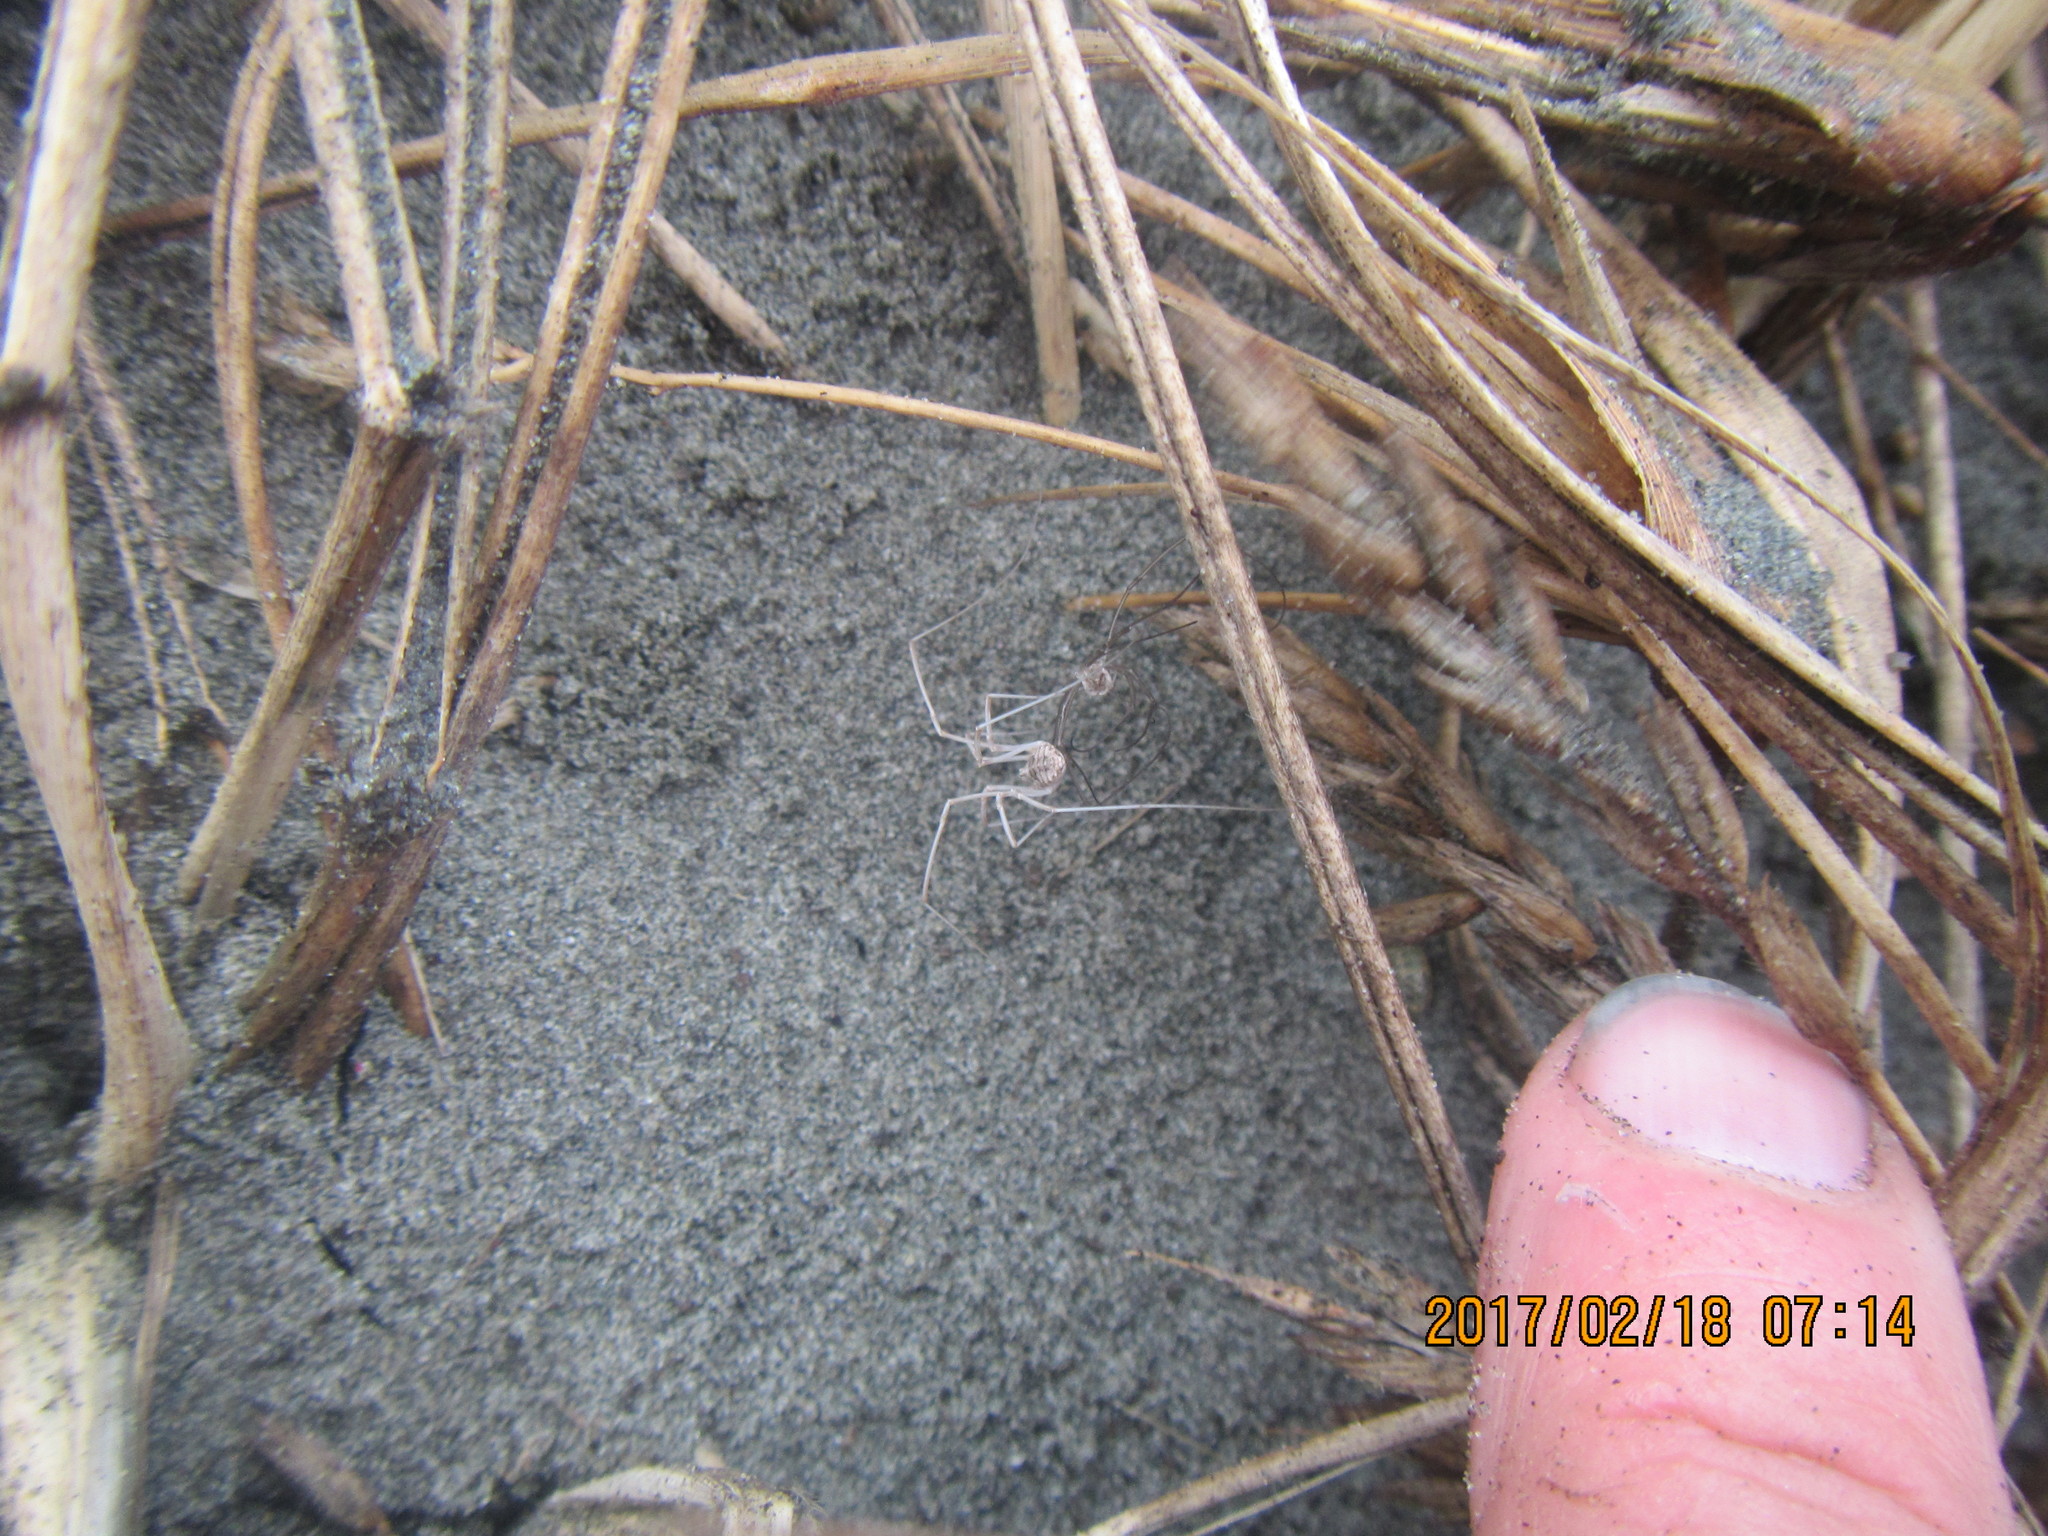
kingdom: Animalia
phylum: Arthropoda
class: Arachnida
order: Opiliones
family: Phalangiidae
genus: Phalangium
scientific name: Phalangium opilio
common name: Daddy longleg
